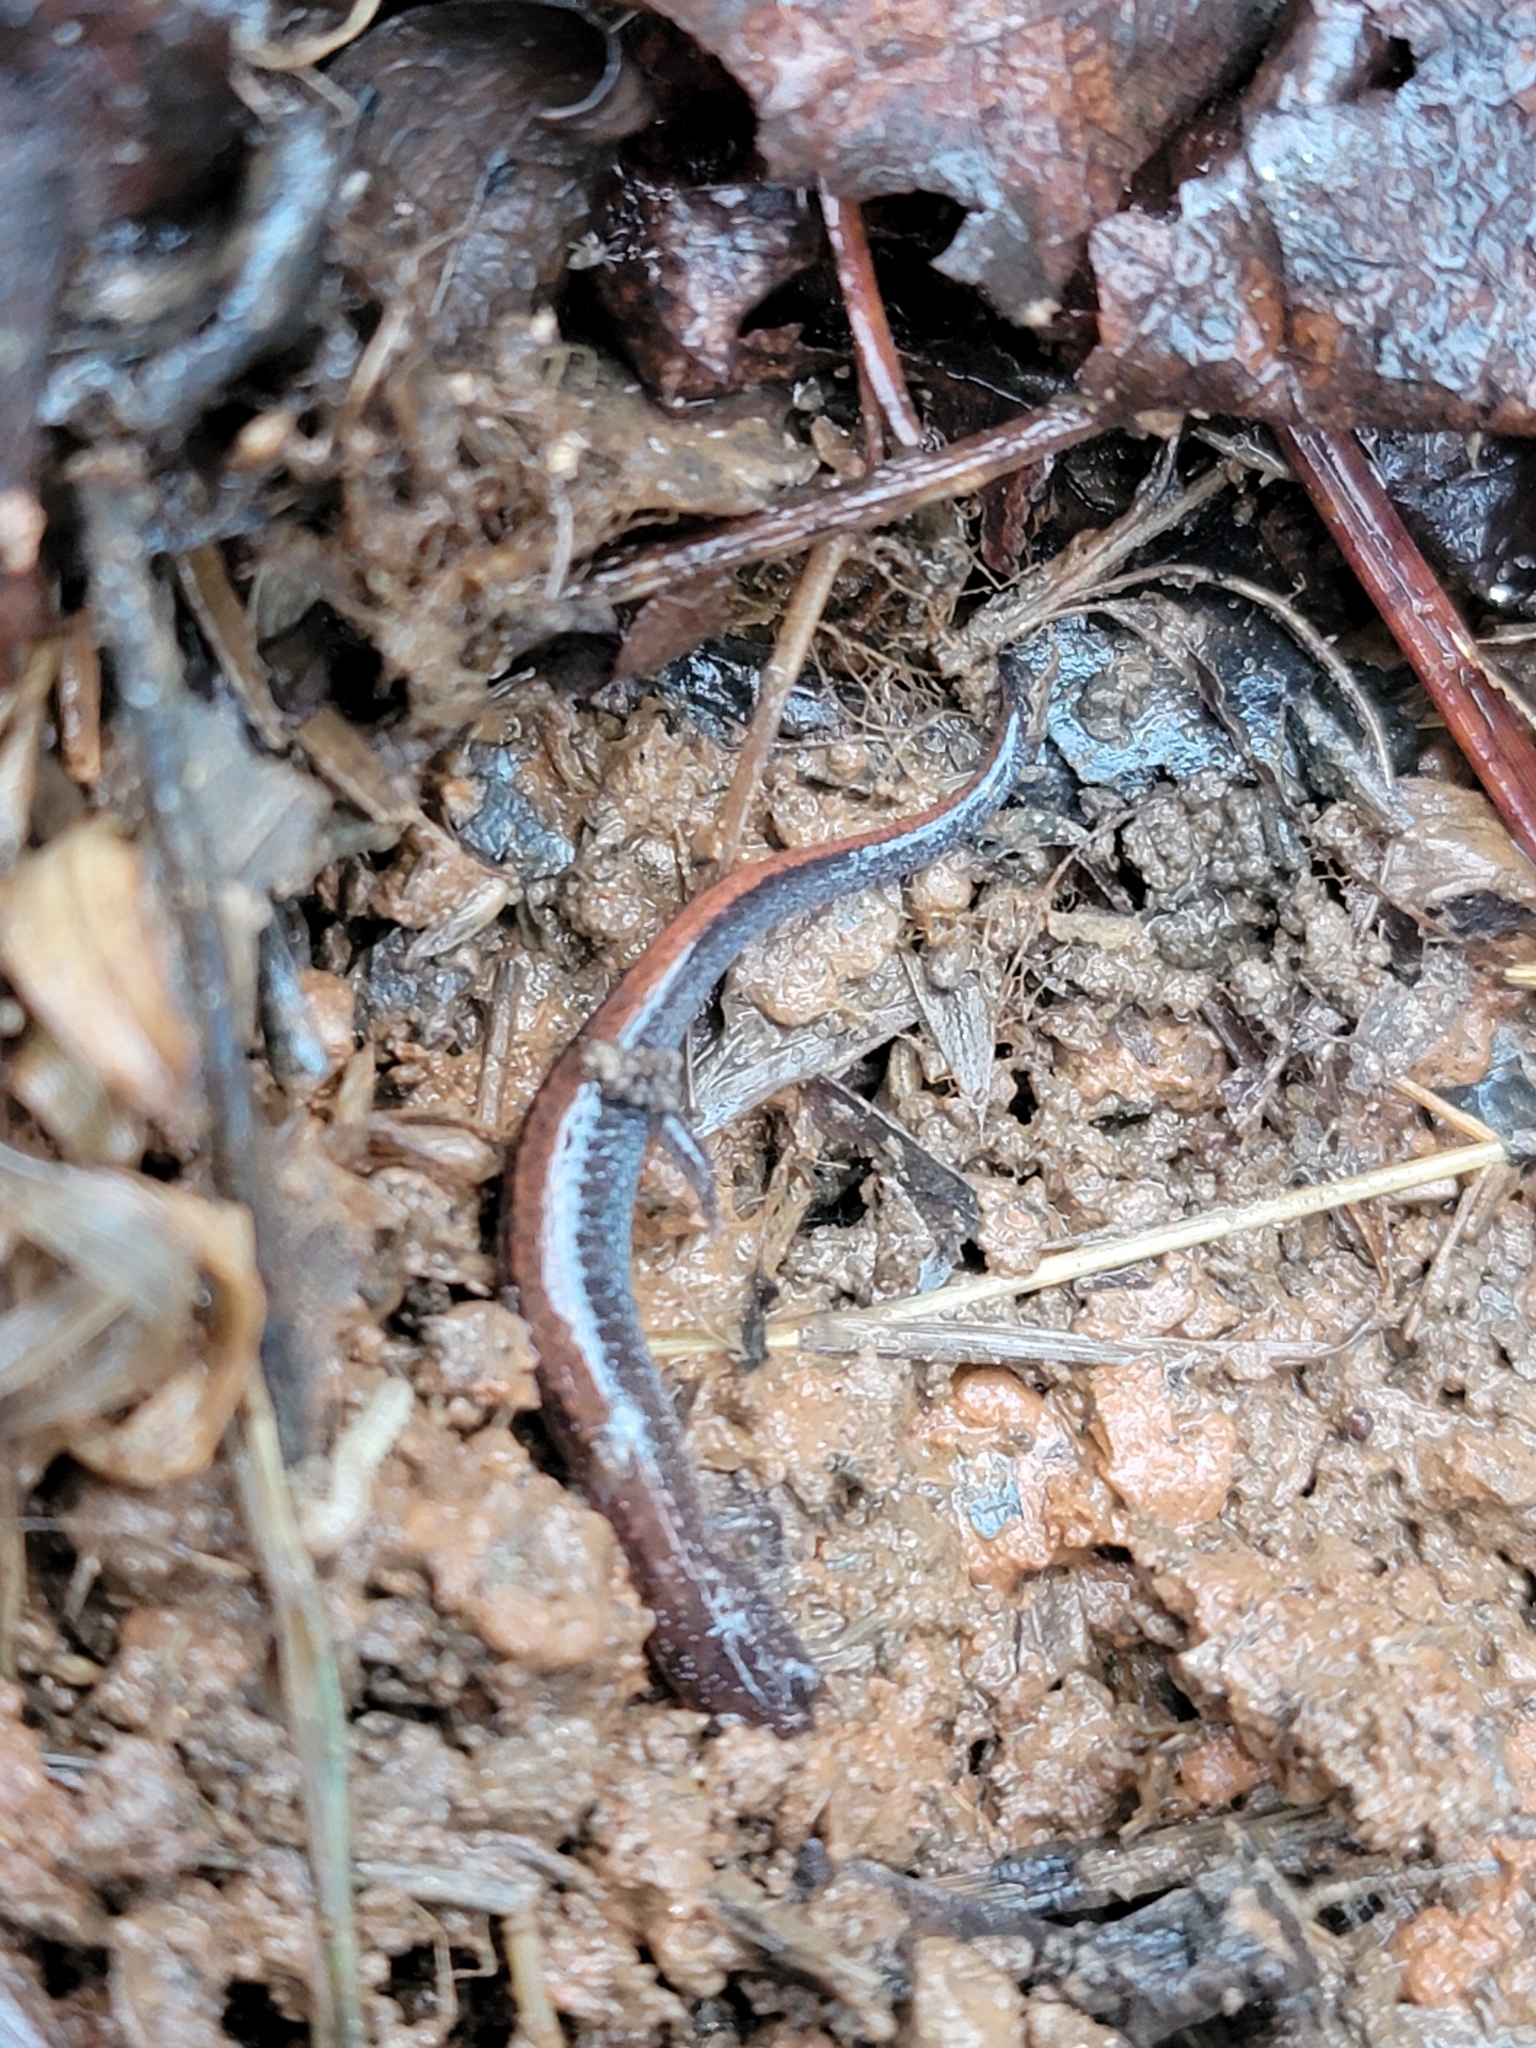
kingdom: Animalia
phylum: Chordata
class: Amphibia
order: Caudata
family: Plethodontidae
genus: Plethodon
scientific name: Plethodon serratus
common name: Southern red-backed salamander
